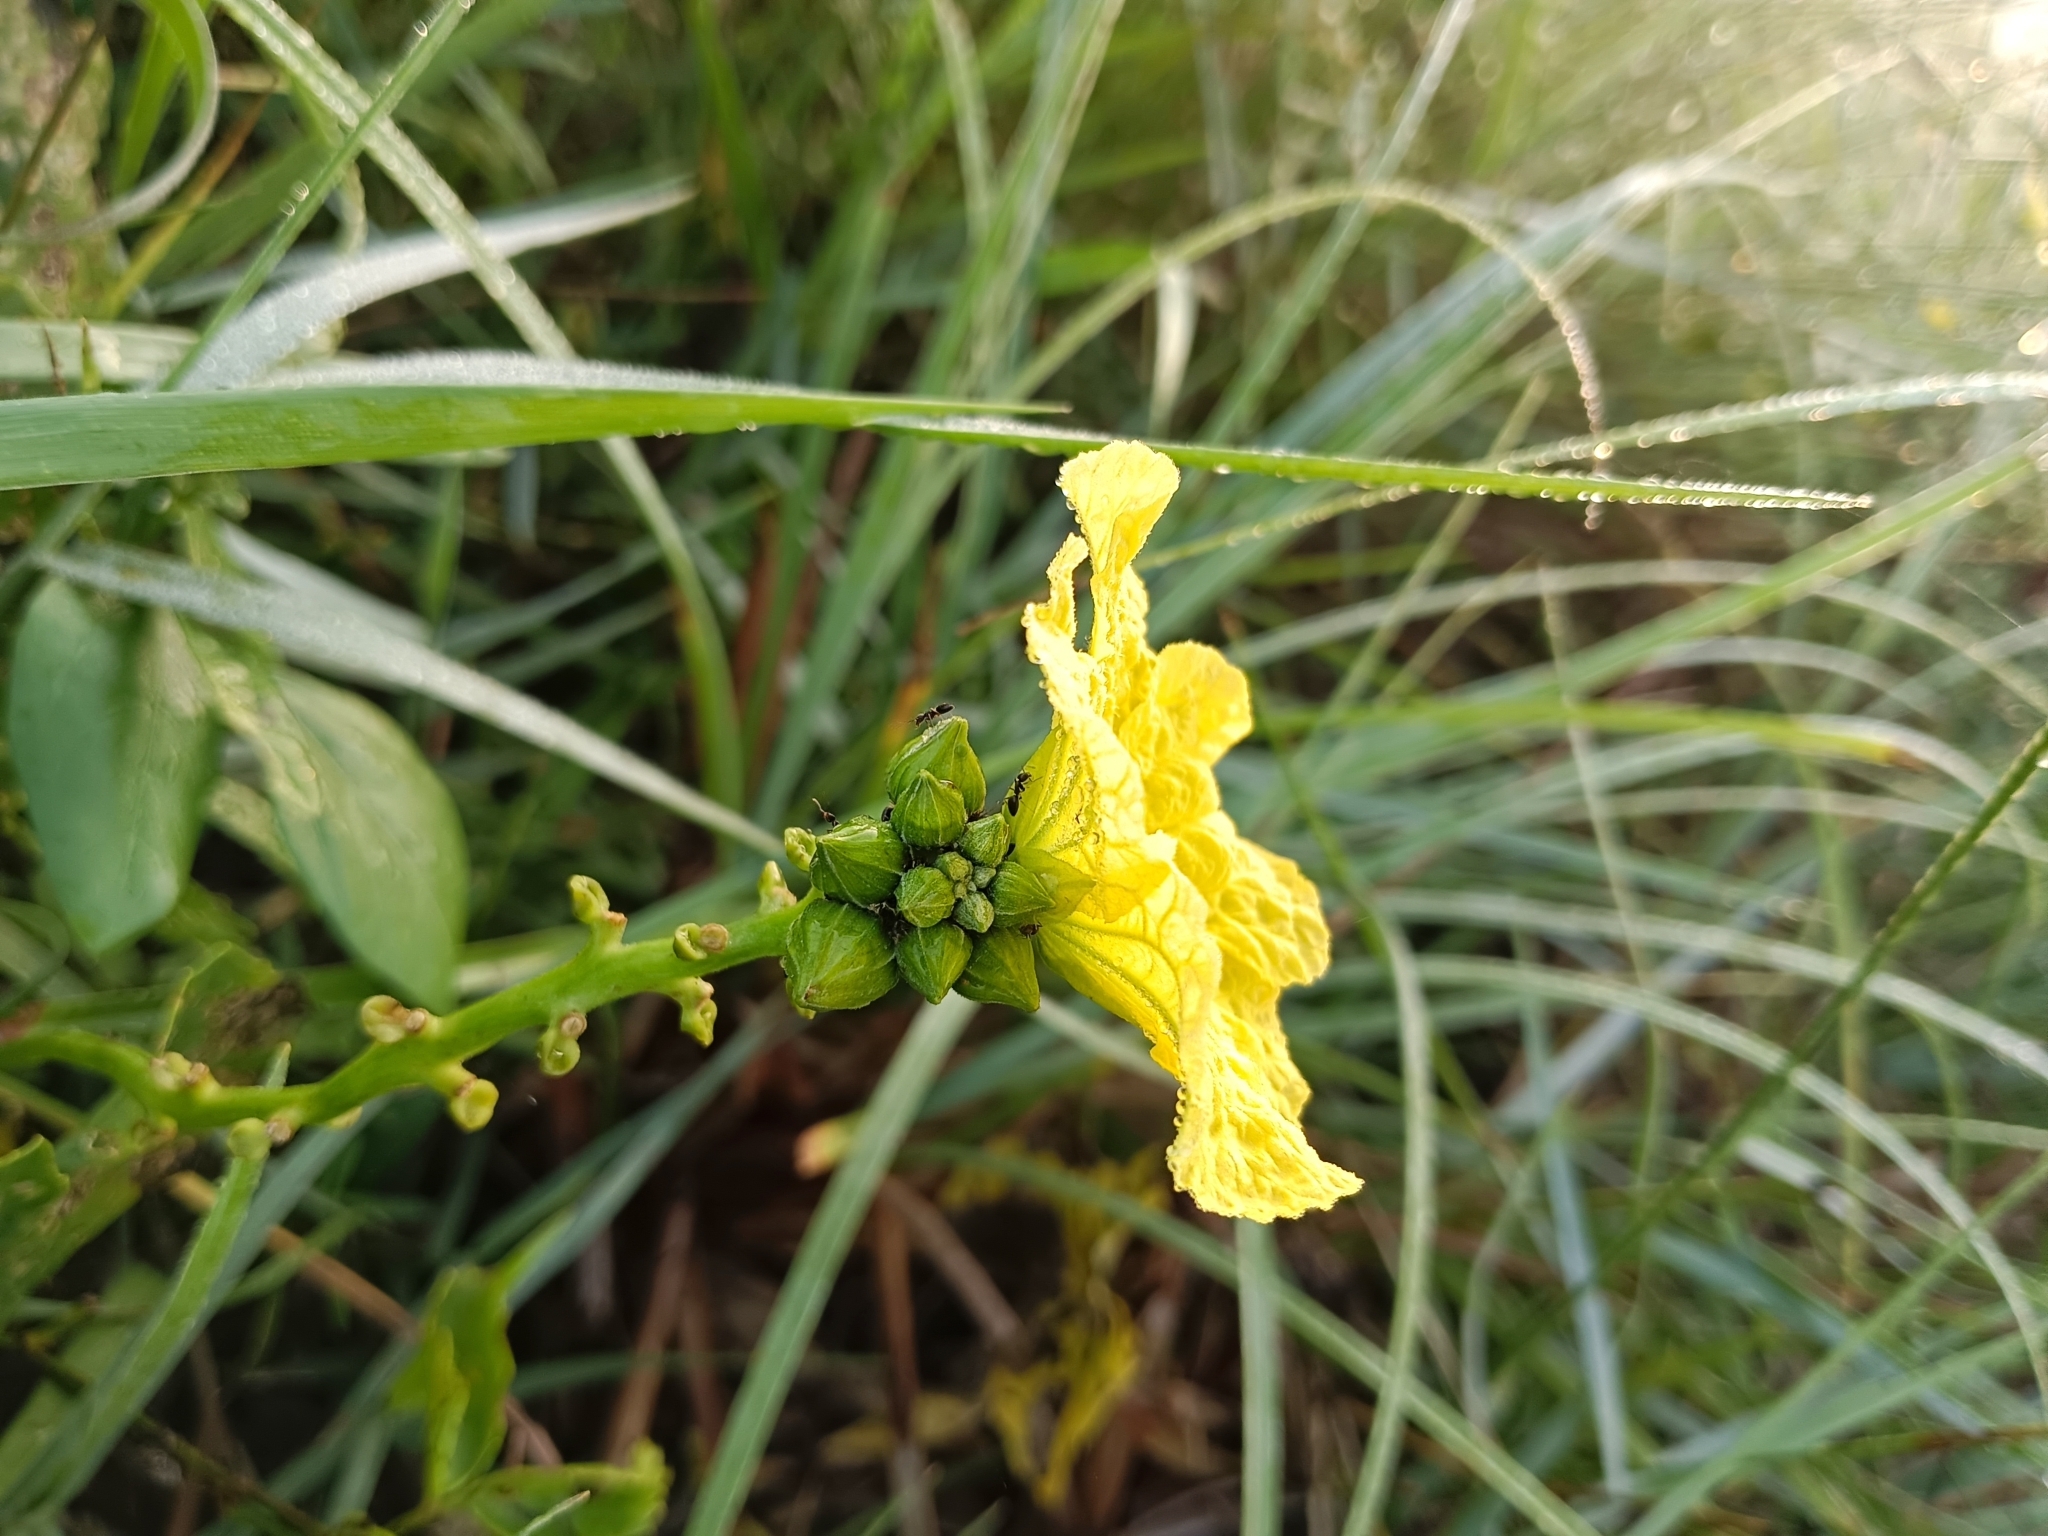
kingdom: Plantae
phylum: Tracheophyta
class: Magnoliopsida
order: Cucurbitales
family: Cucurbitaceae
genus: Luffa
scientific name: Luffa aegyptiaca
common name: Sponge gourd
